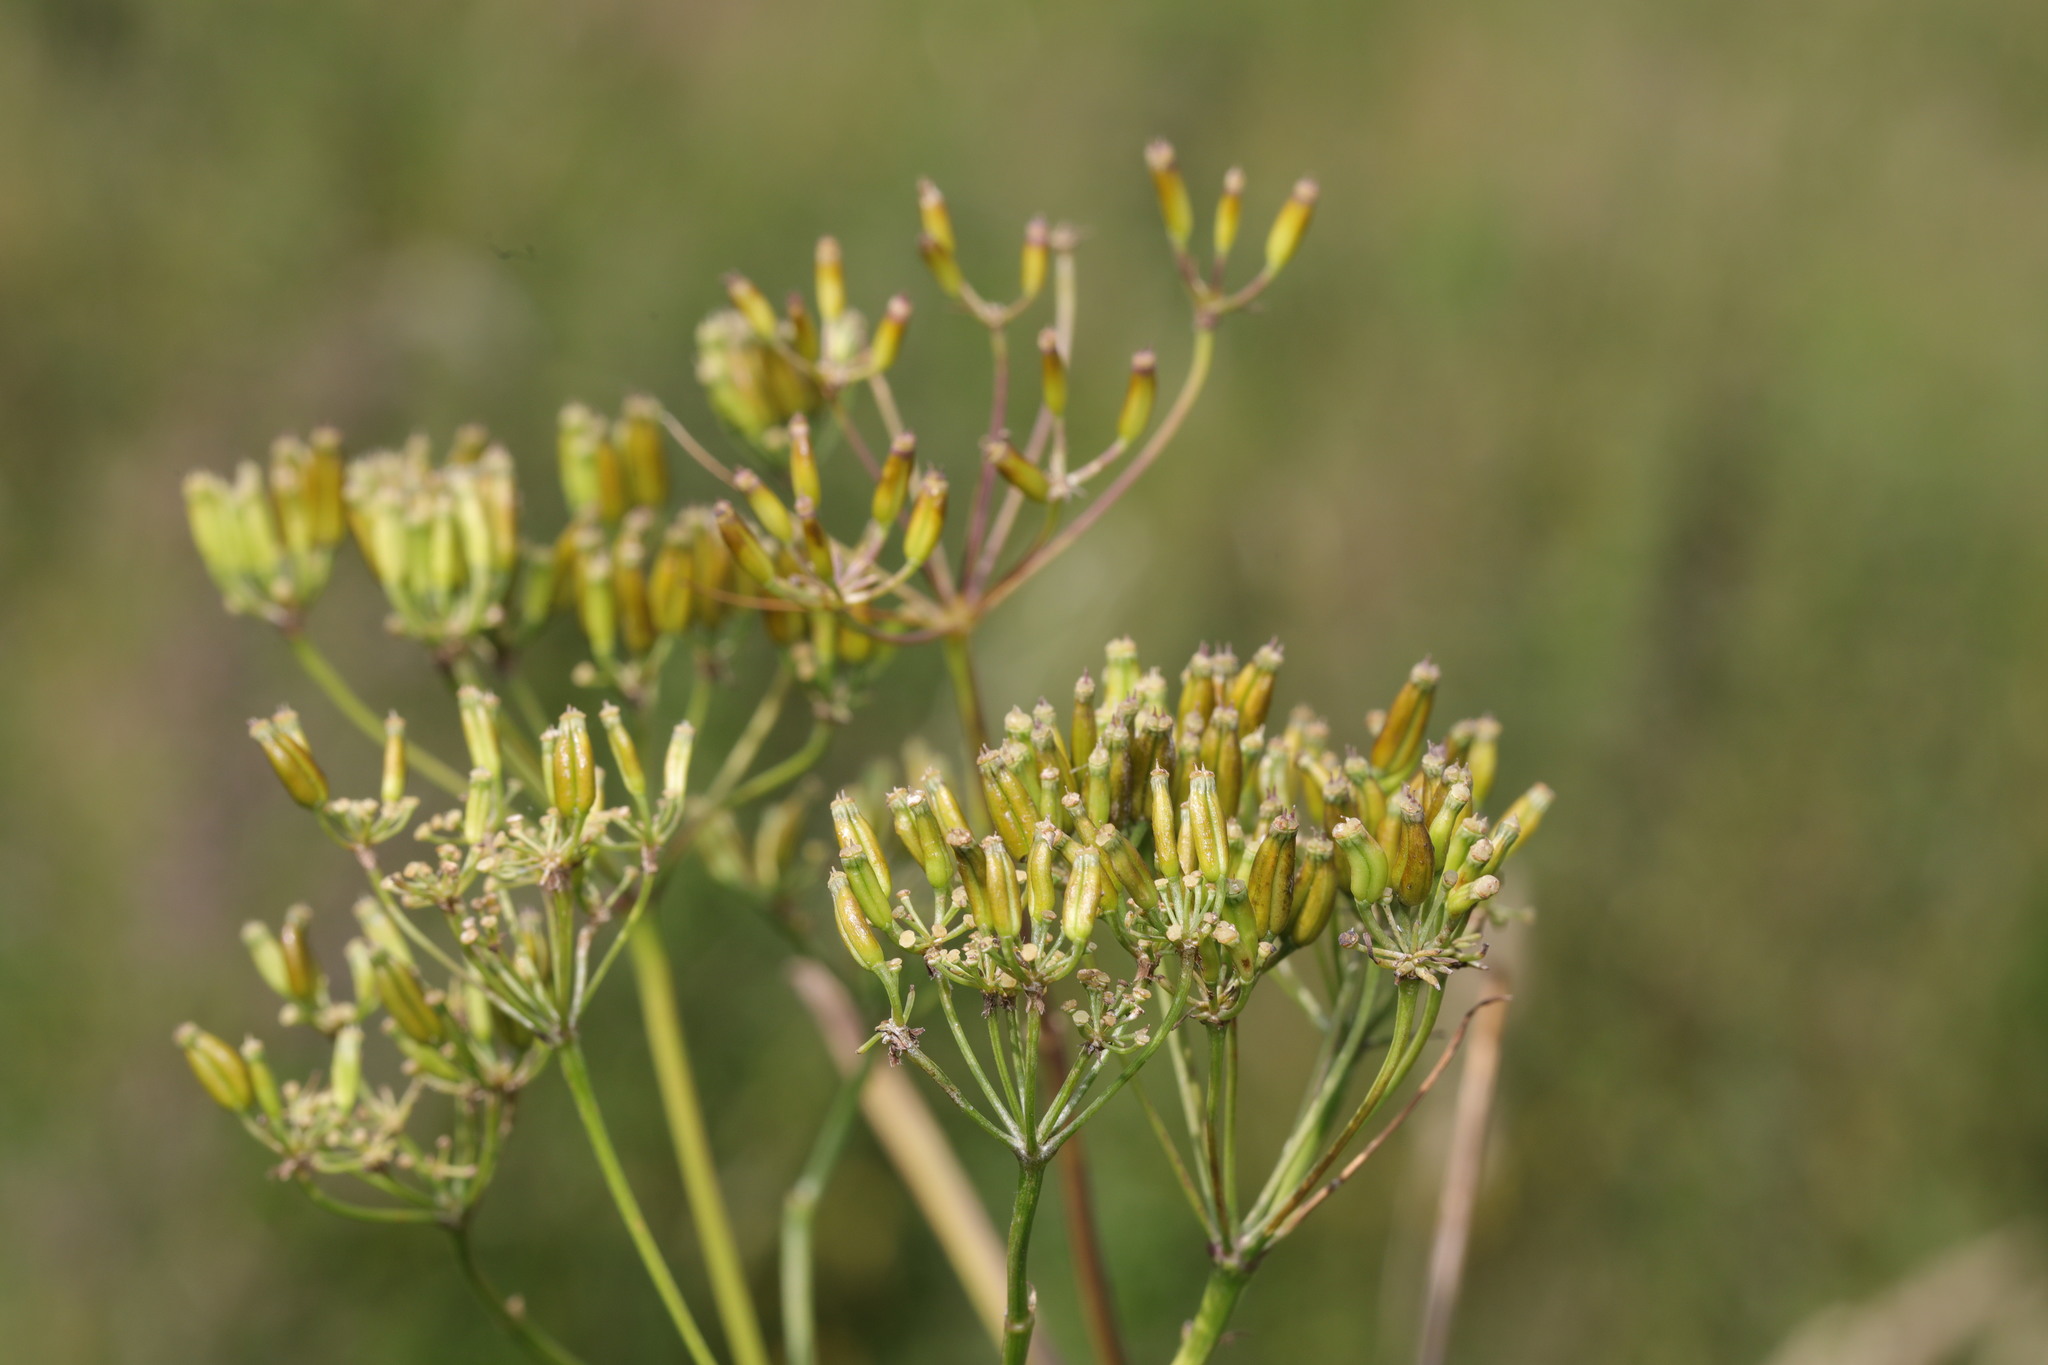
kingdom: Plantae
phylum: Tracheophyta
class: Magnoliopsida
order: Apiales
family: Apiaceae
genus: Anthriscus
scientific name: Anthriscus sylvestris
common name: Cow parsley
